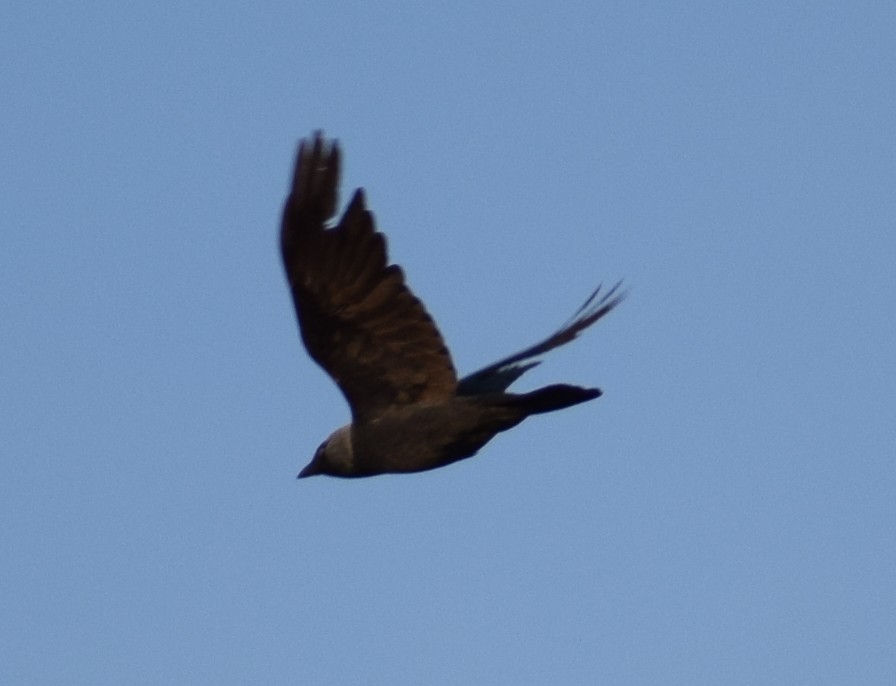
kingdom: Animalia
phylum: Chordata
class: Aves
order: Passeriformes
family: Corvidae
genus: Coloeus
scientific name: Coloeus monedula
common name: Western jackdaw
